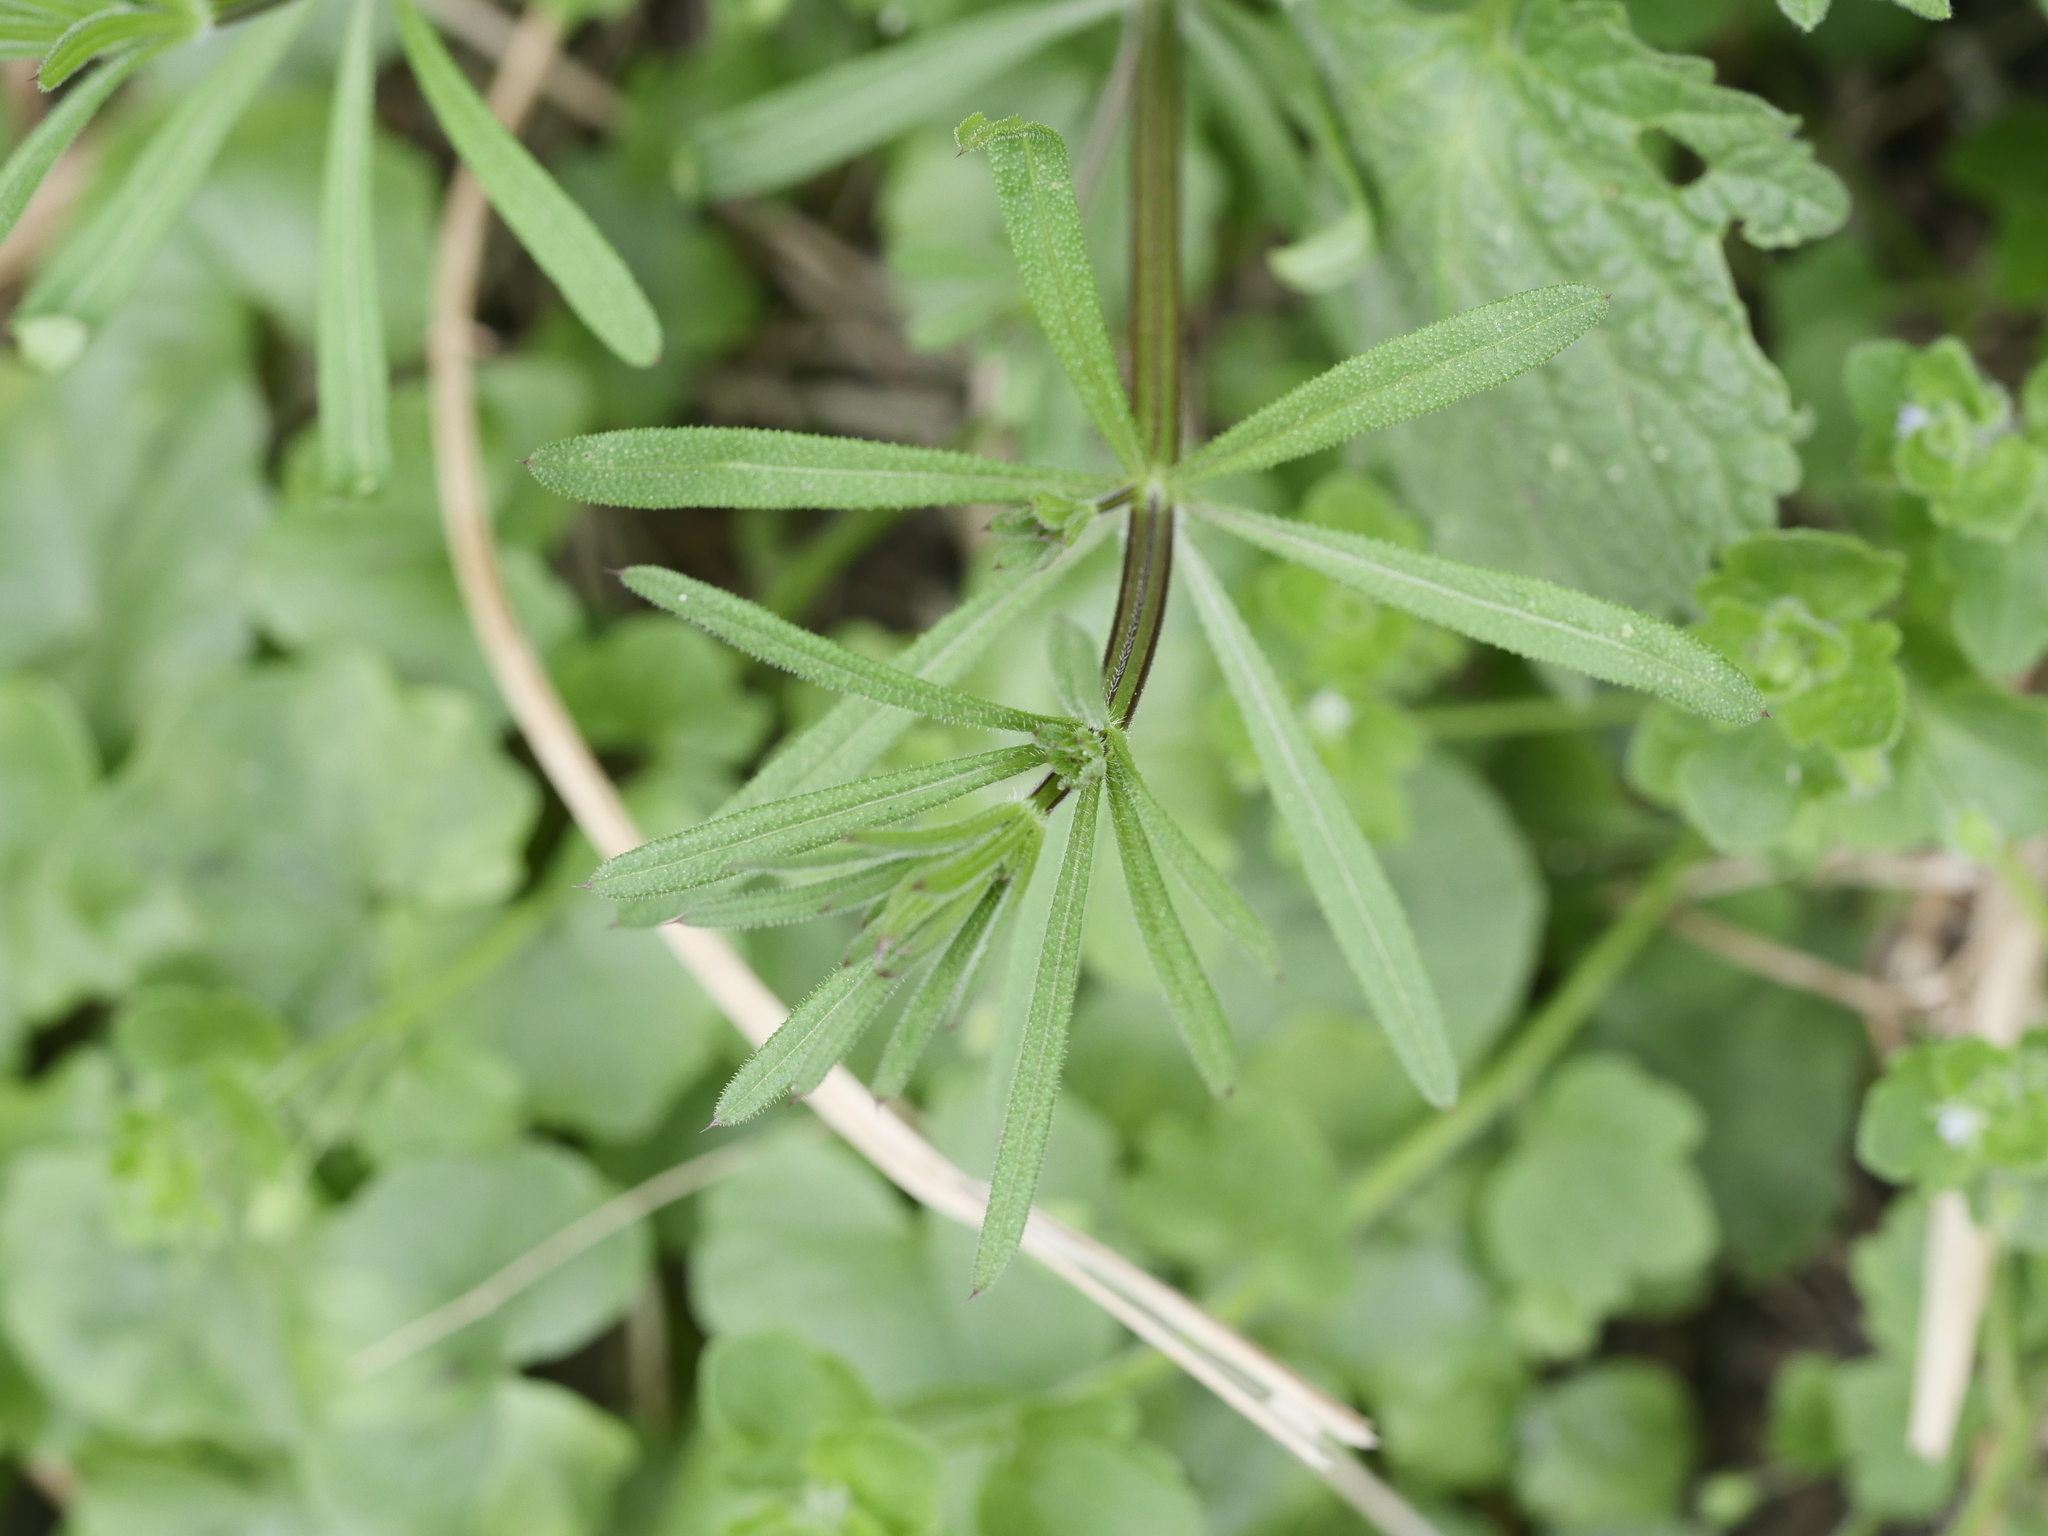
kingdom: Plantae
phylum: Tracheophyta
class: Magnoliopsida
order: Gentianales
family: Rubiaceae
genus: Galium
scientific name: Galium aparine
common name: Cleavers
